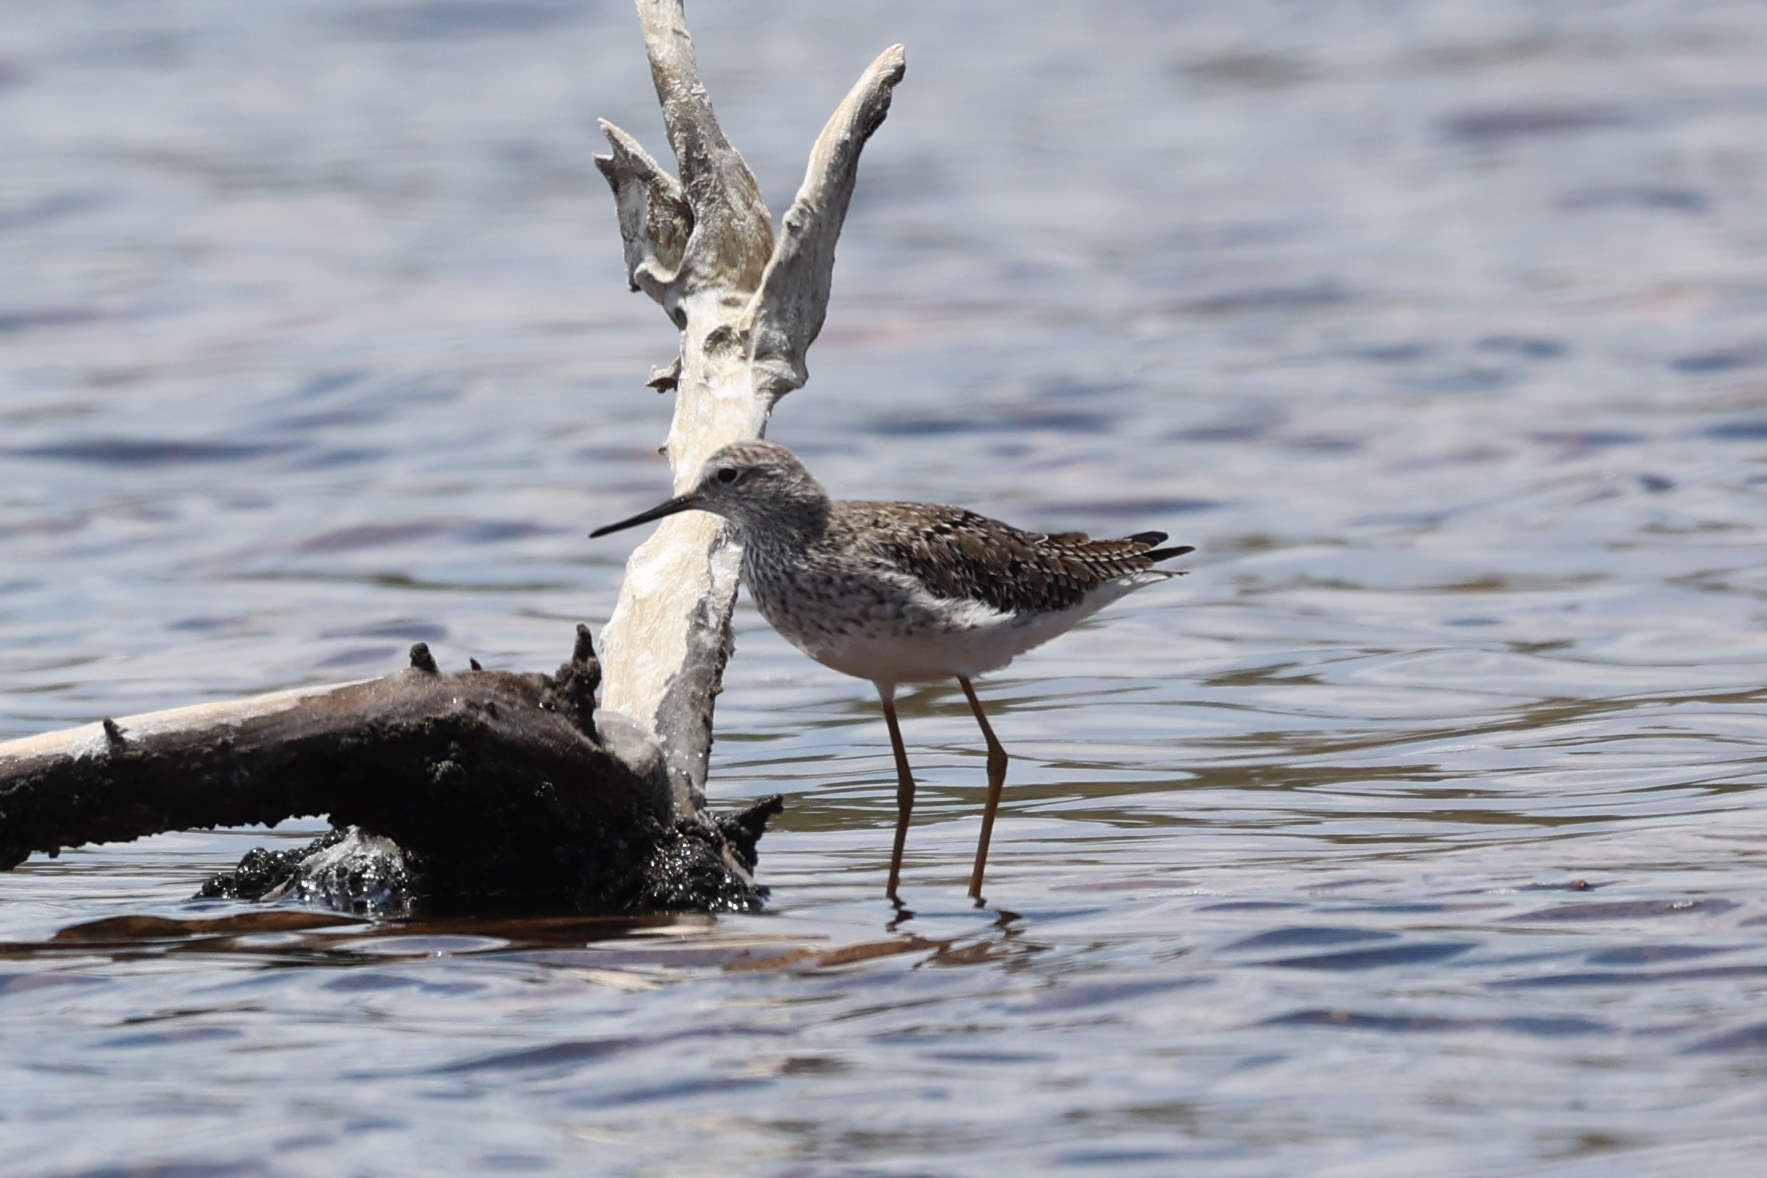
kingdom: Animalia
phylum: Chordata
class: Aves
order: Charadriiformes
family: Scolopacidae
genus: Tringa
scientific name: Tringa flavipes
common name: Lesser yellowlegs
